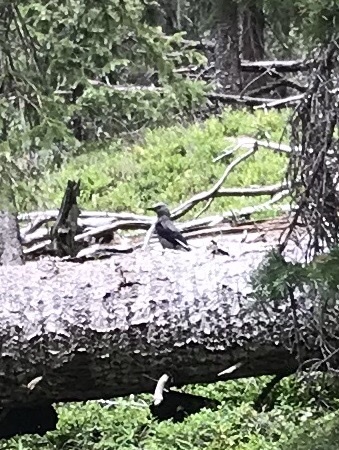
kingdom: Animalia
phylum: Chordata
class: Aves
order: Passeriformes
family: Corvidae
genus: Nucifraga
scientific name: Nucifraga columbiana
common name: Clark's nutcracker
